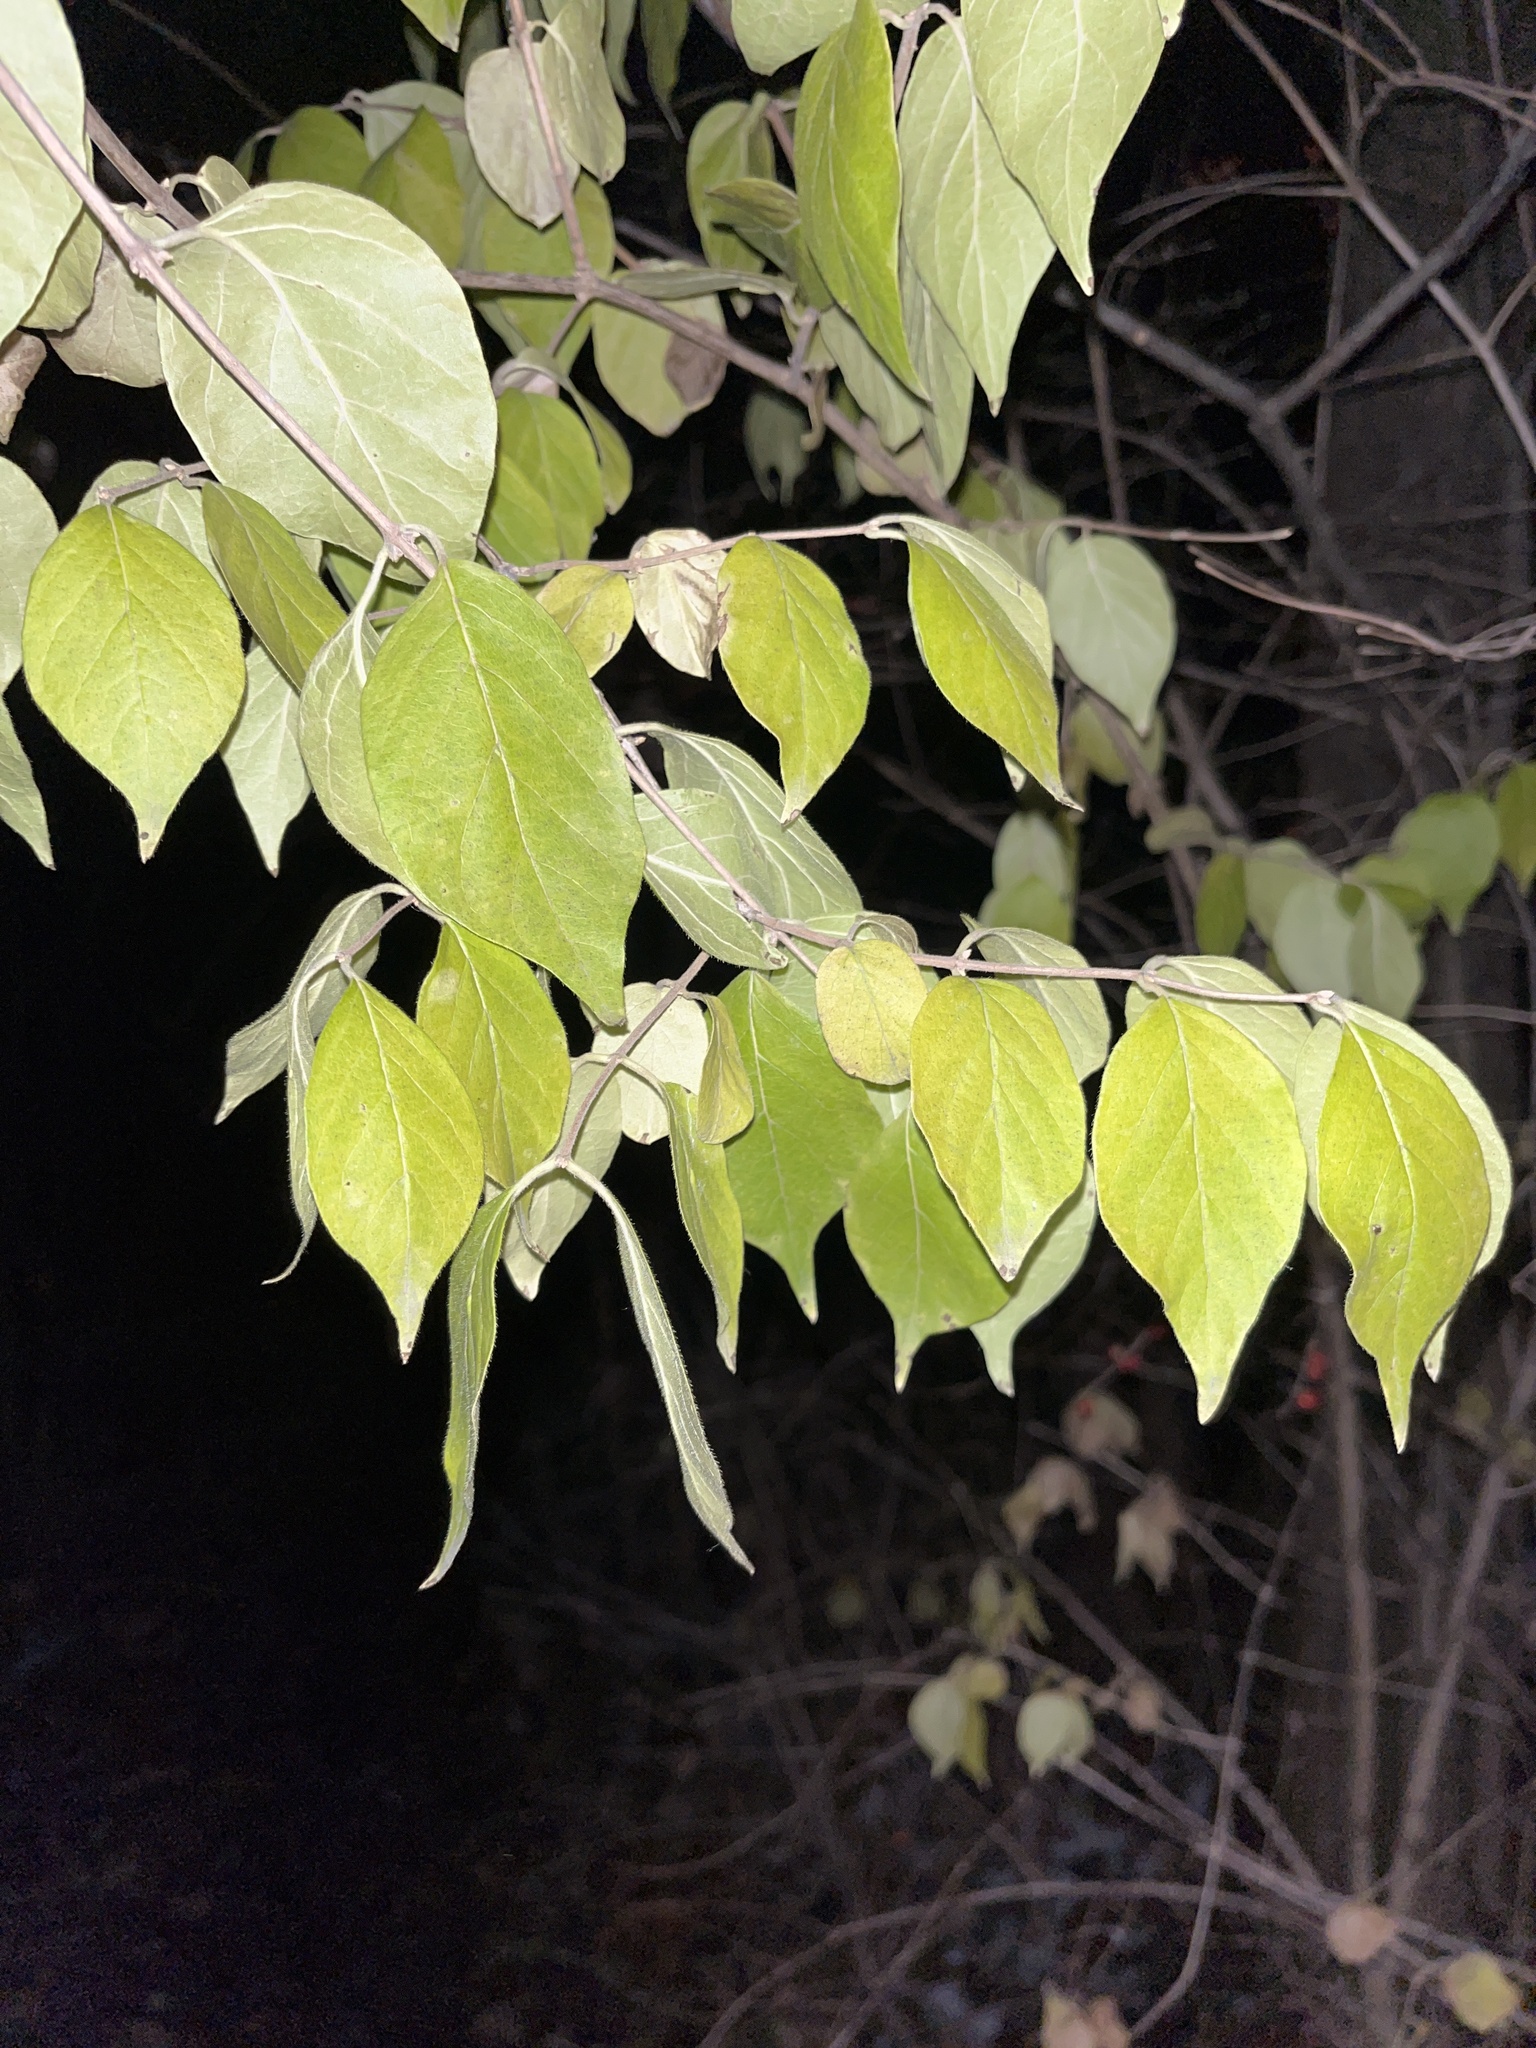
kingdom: Plantae
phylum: Tracheophyta
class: Magnoliopsida
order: Dipsacales
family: Caprifoliaceae
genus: Lonicera
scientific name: Lonicera maackii
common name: Amur honeysuckle
